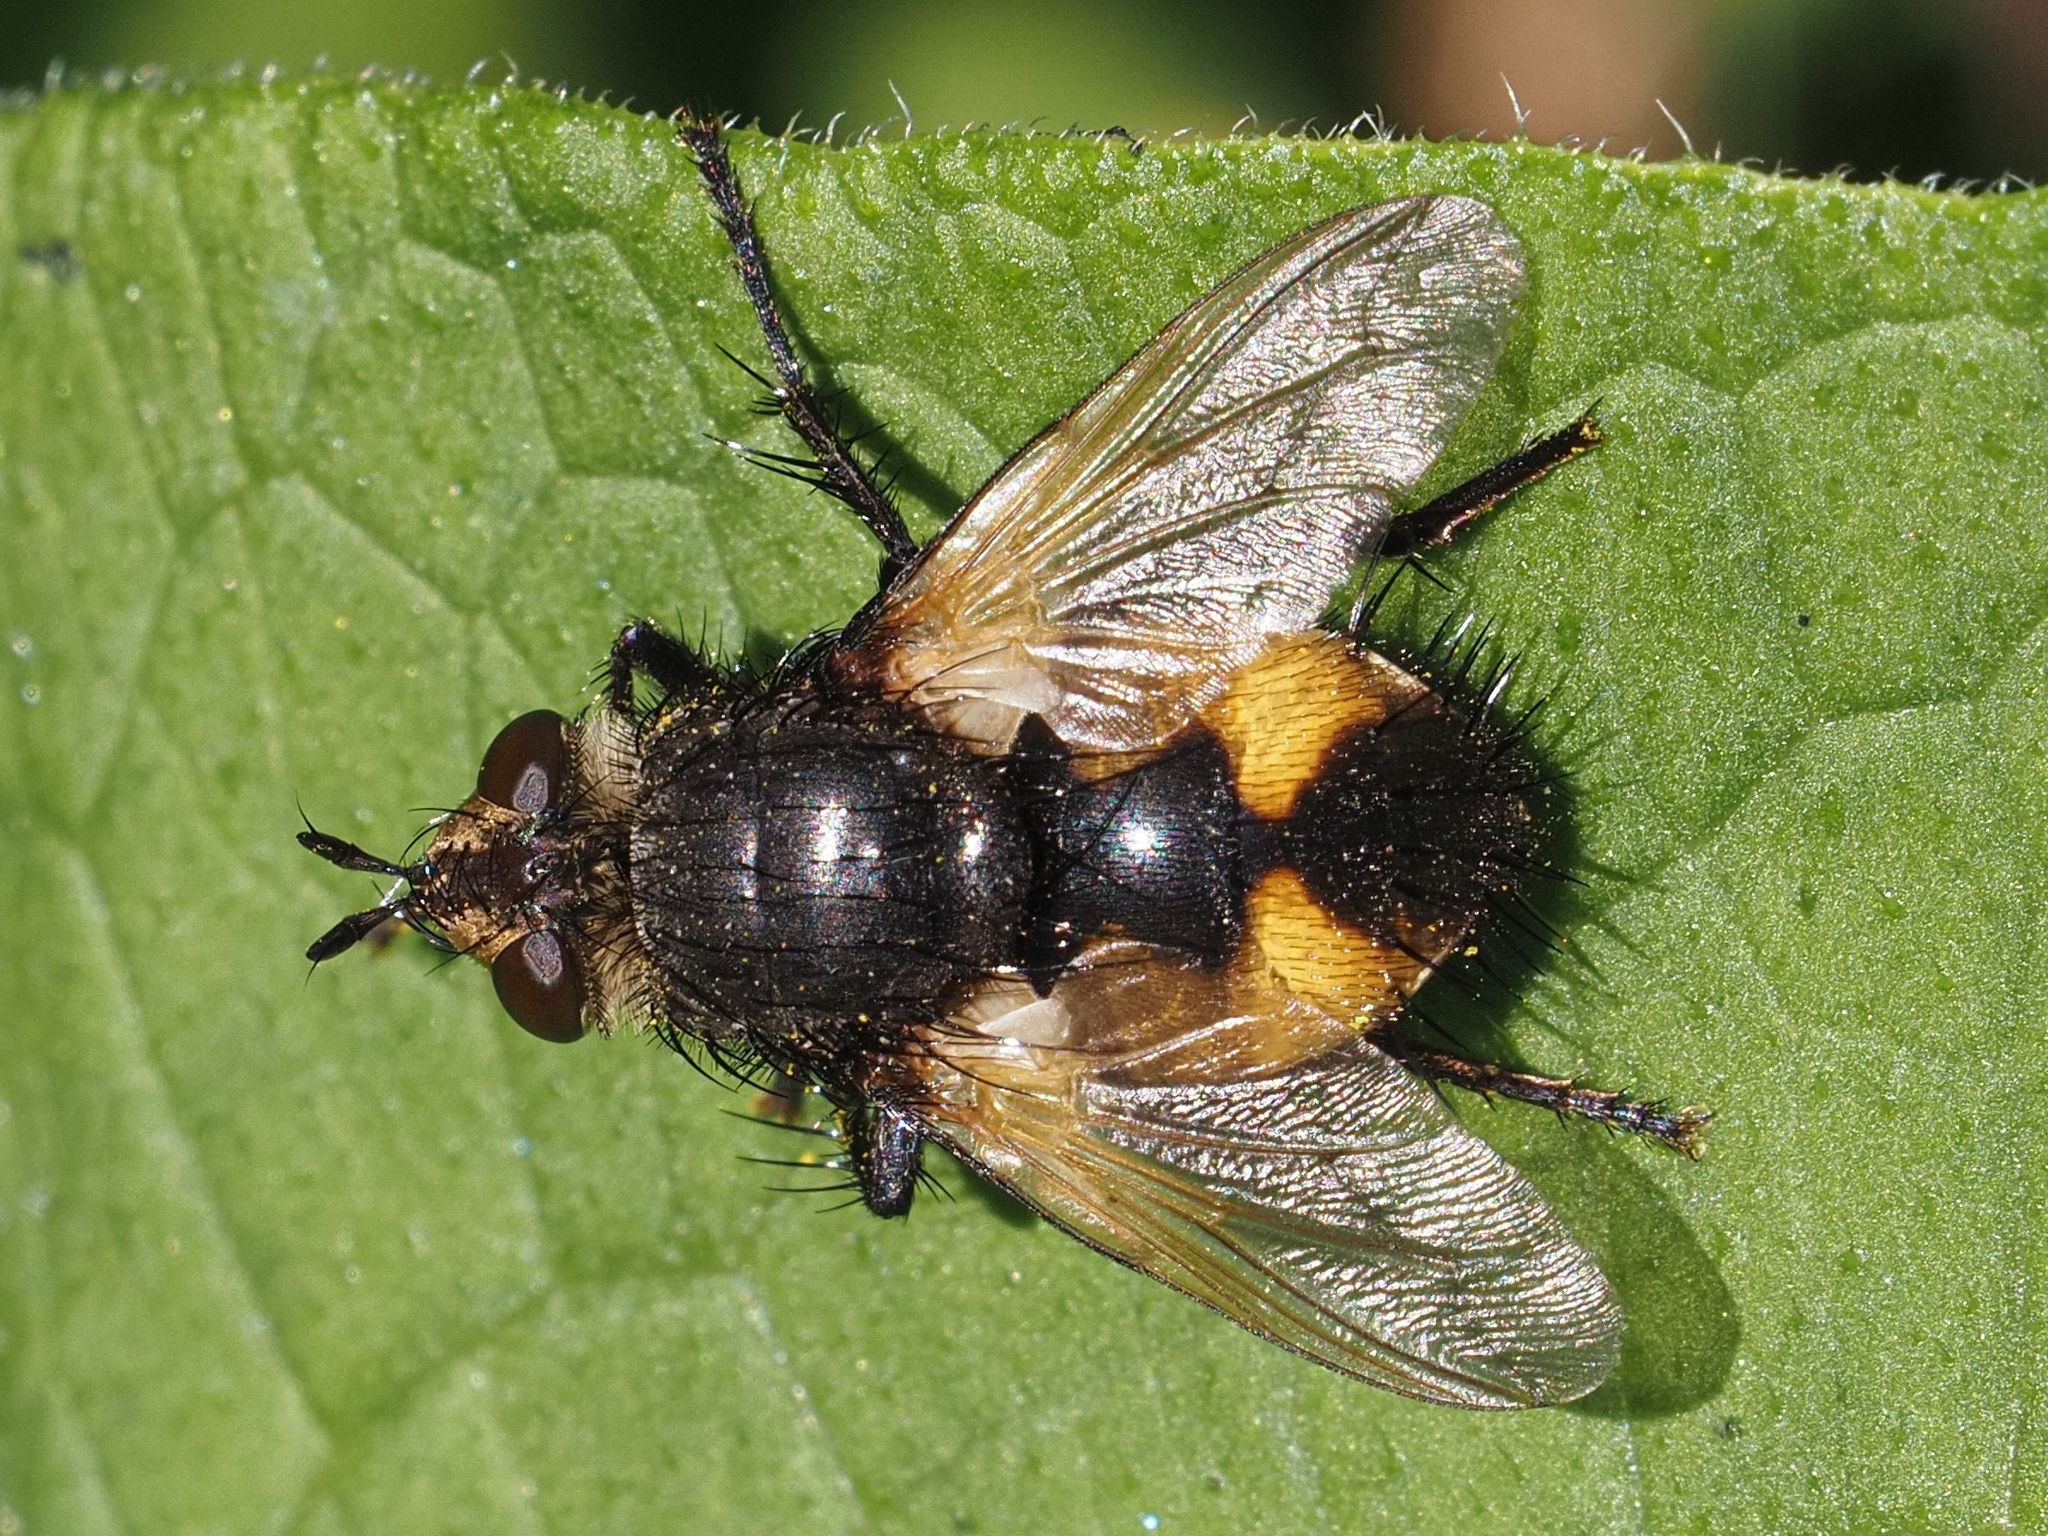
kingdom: Animalia
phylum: Arthropoda
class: Insecta
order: Diptera
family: Tachinidae
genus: Nowickia
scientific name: Nowickia ferox
